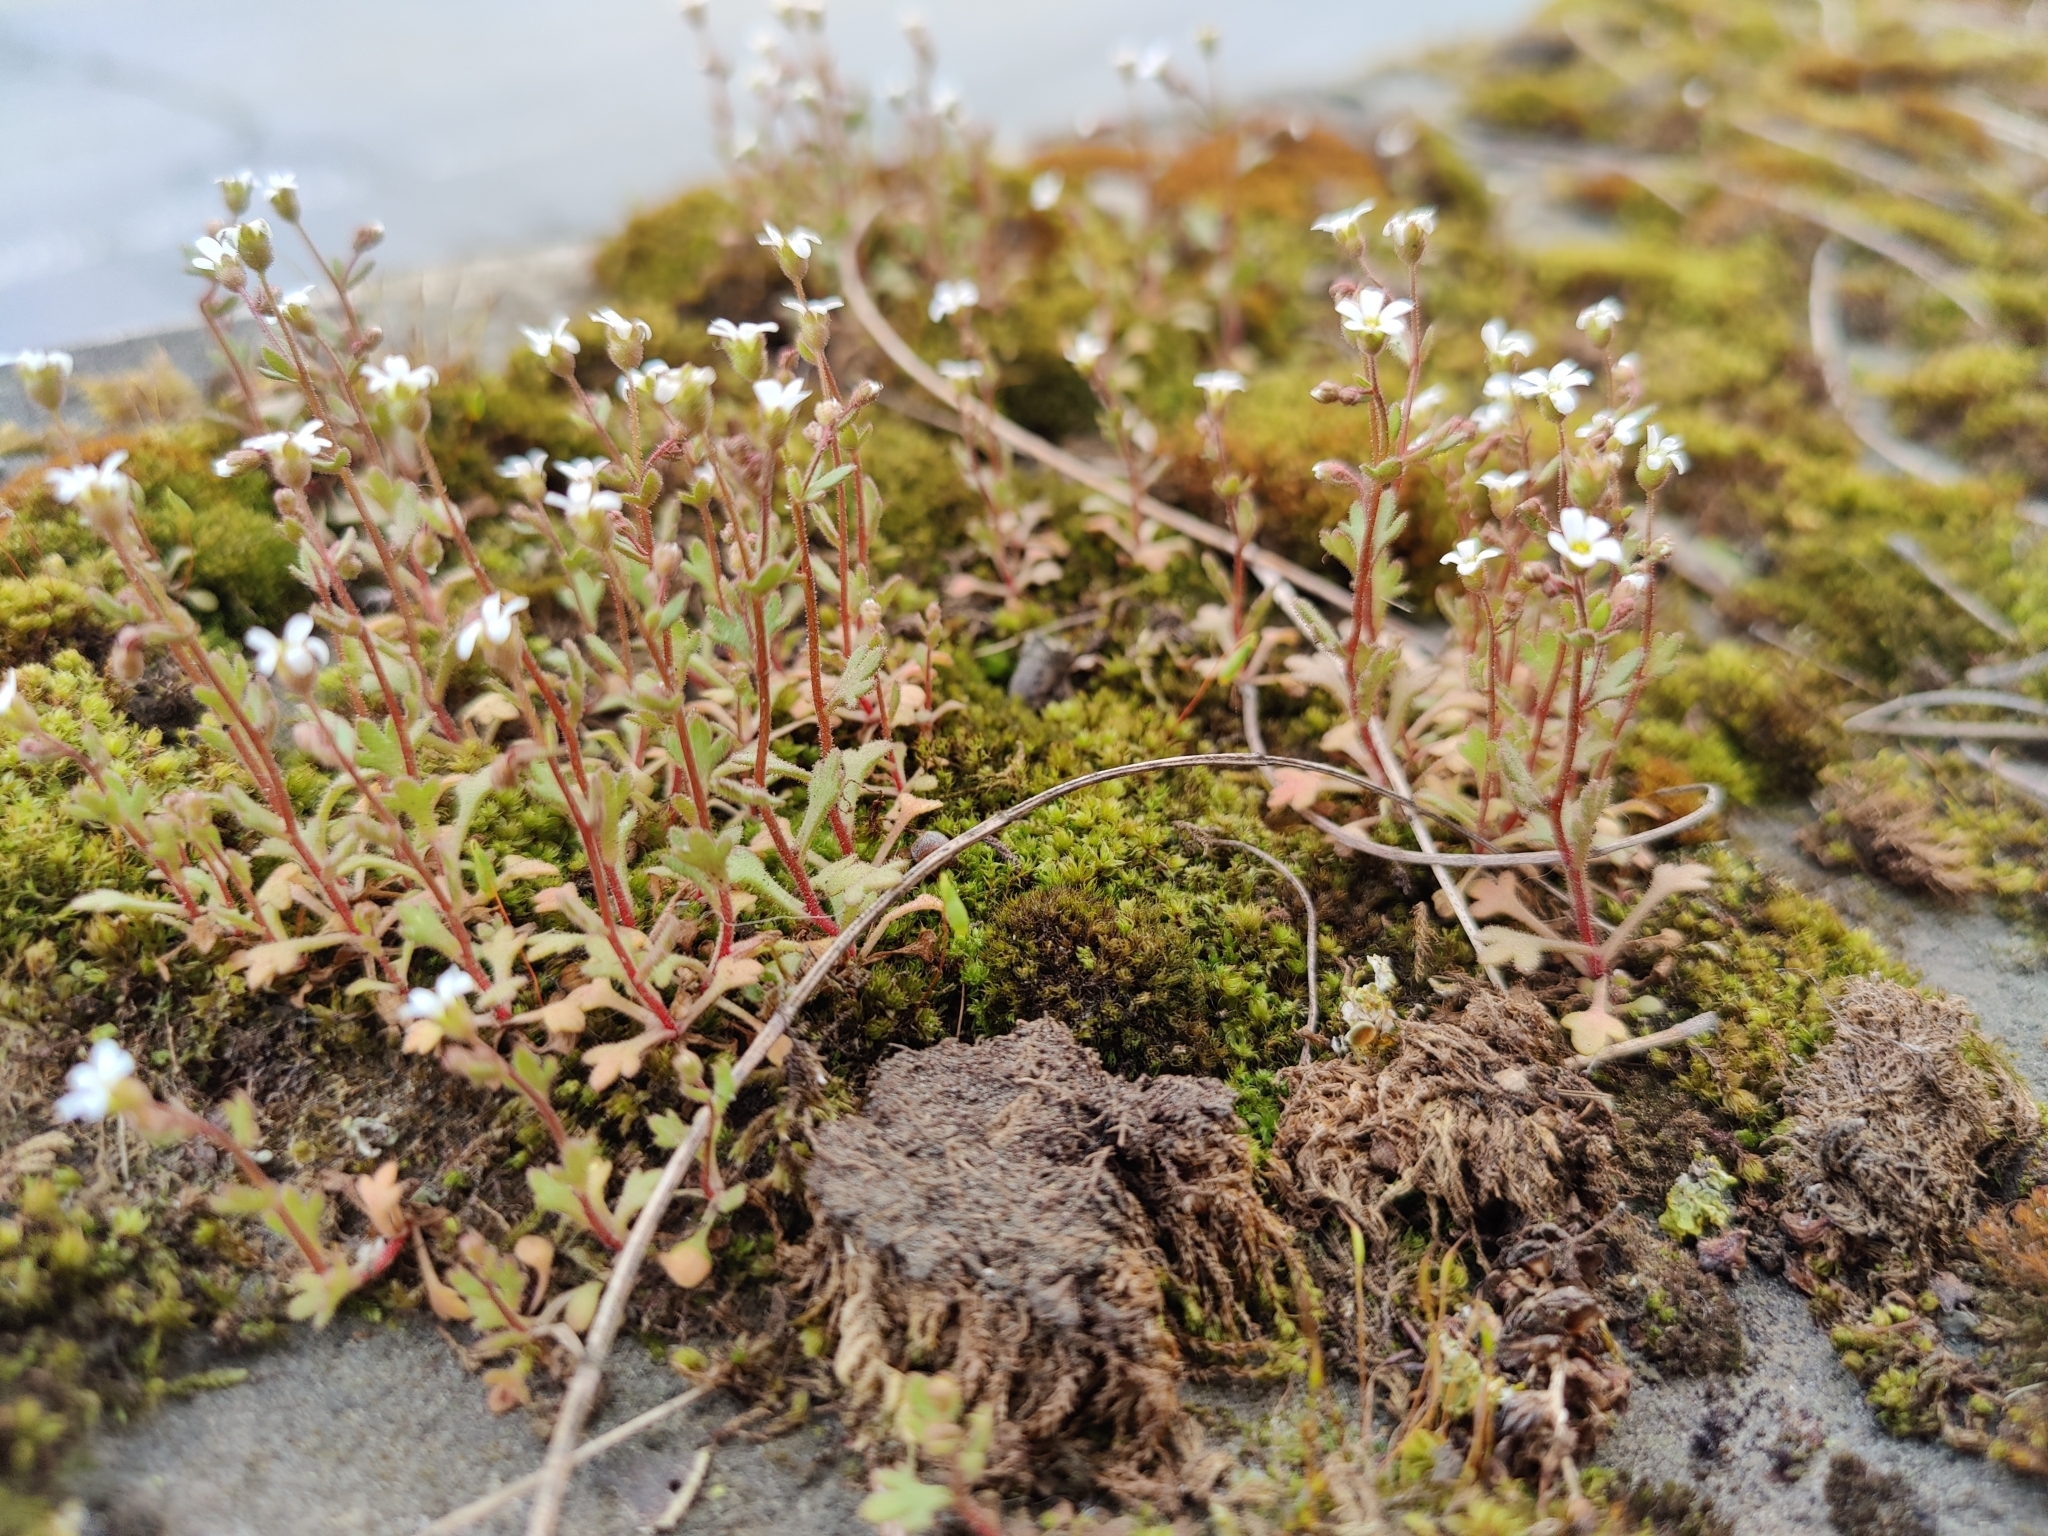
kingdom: Plantae
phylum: Tracheophyta
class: Magnoliopsida
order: Saxifragales
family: Saxifragaceae
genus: Saxifraga
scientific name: Saxifraga tridactylites
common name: Rue-leaved saxifrage
